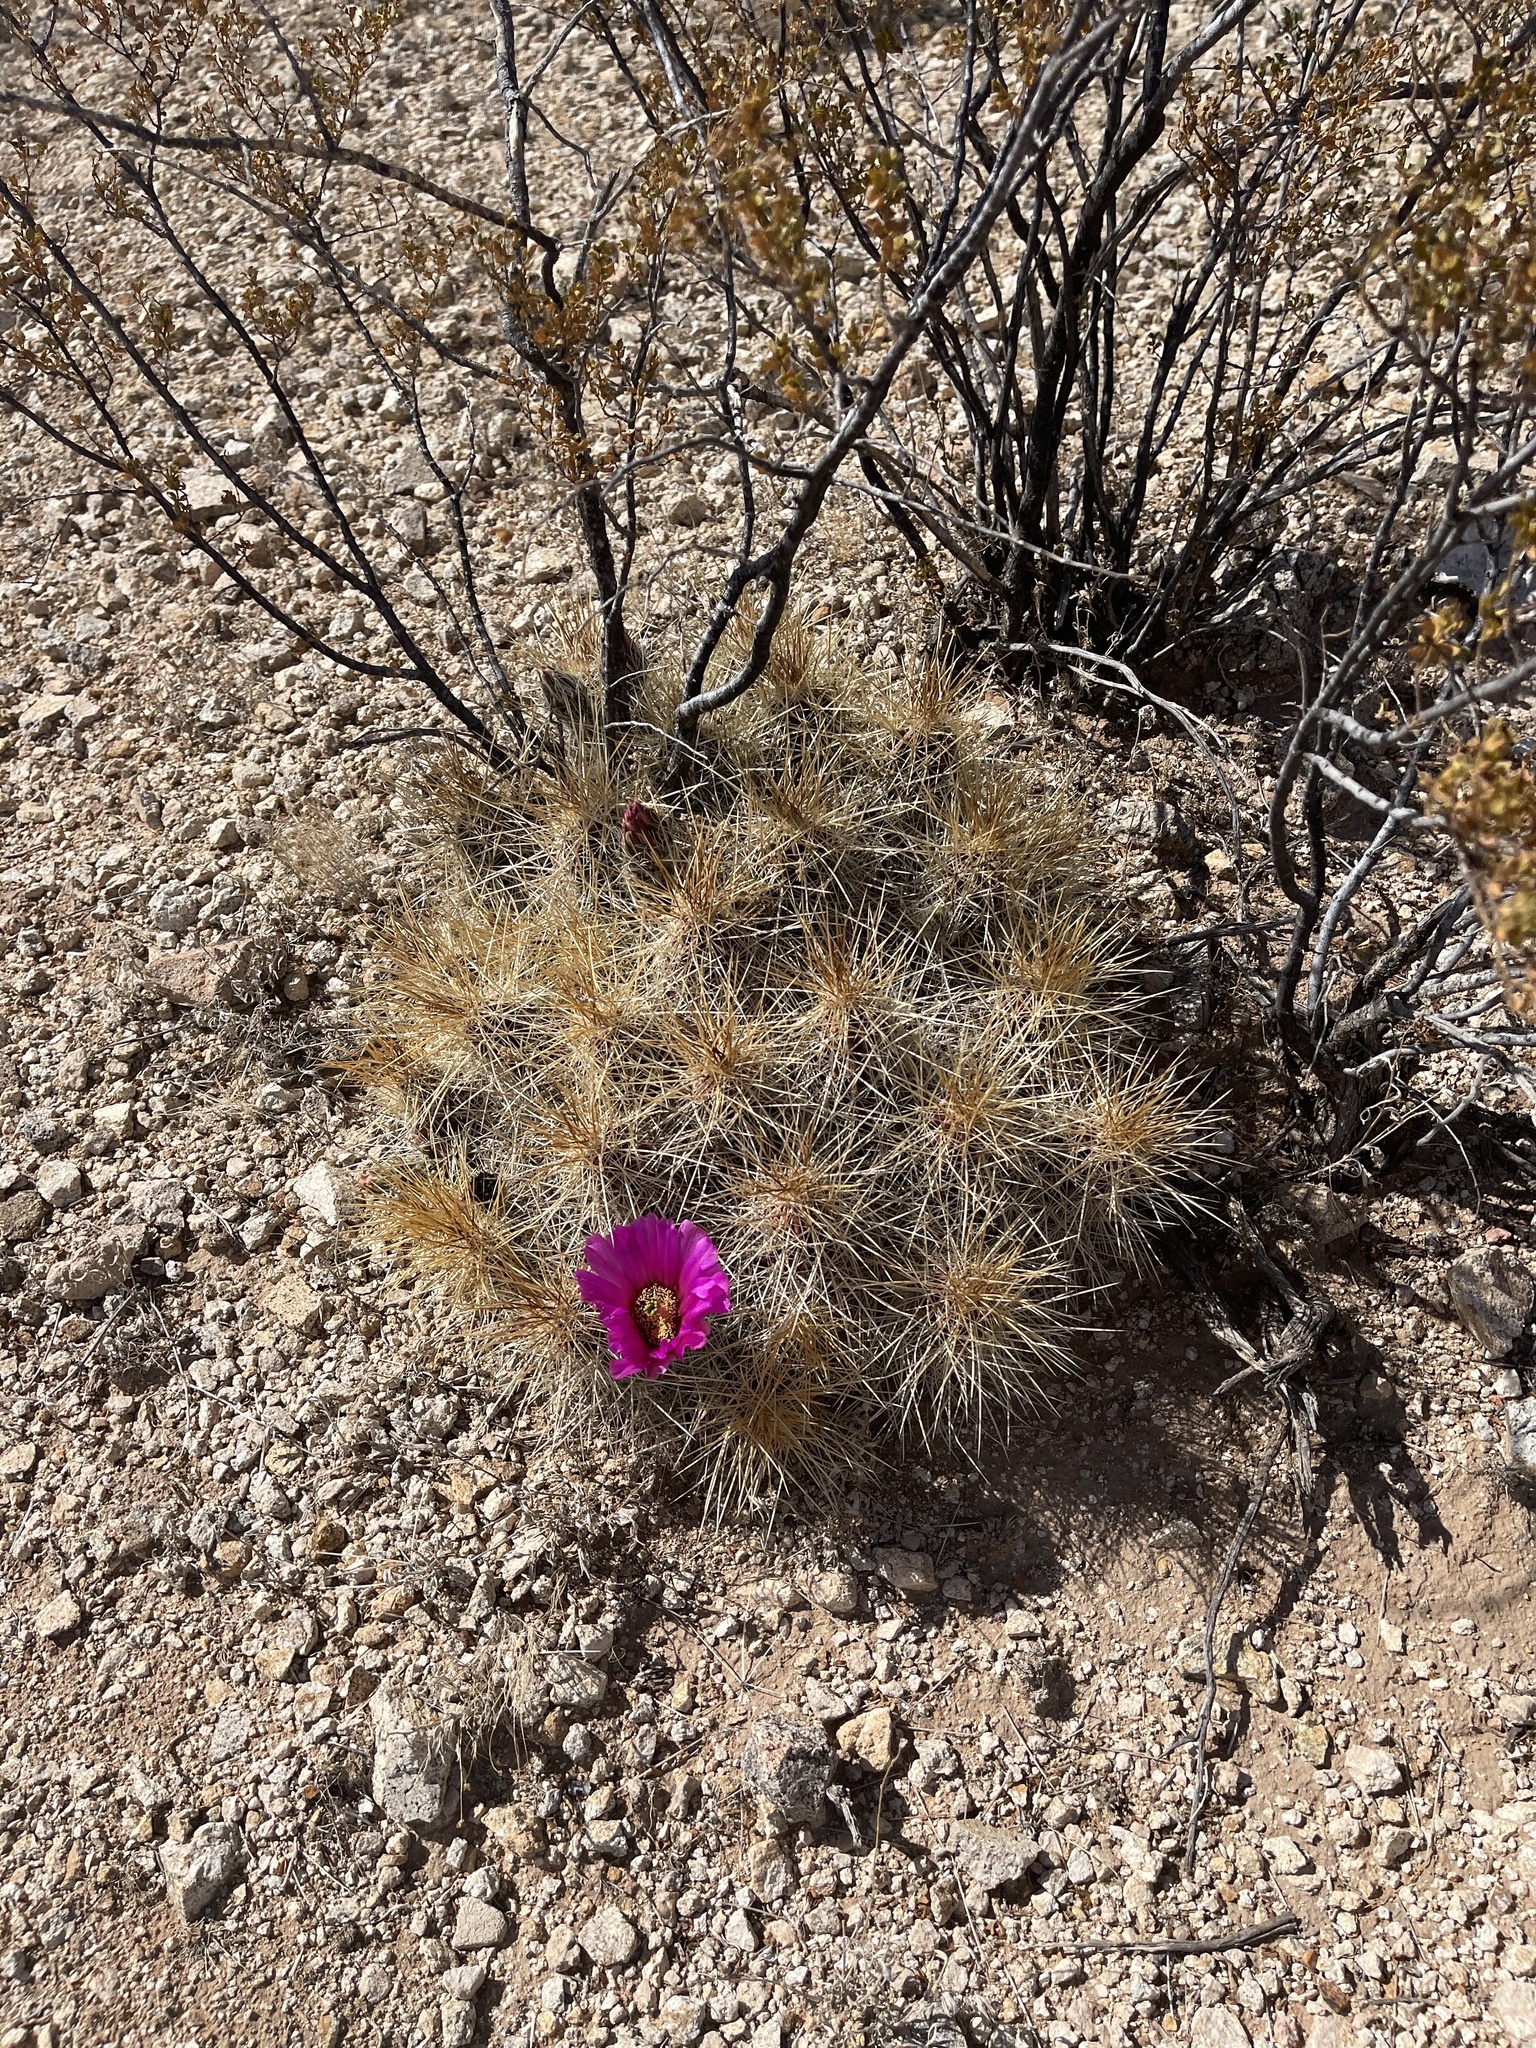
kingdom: Plantae
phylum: Tracheophyta
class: Magnoliopsida
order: Caryophyllales
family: Cactaceae
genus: Echinocereus
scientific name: Echinocereus stramineus
